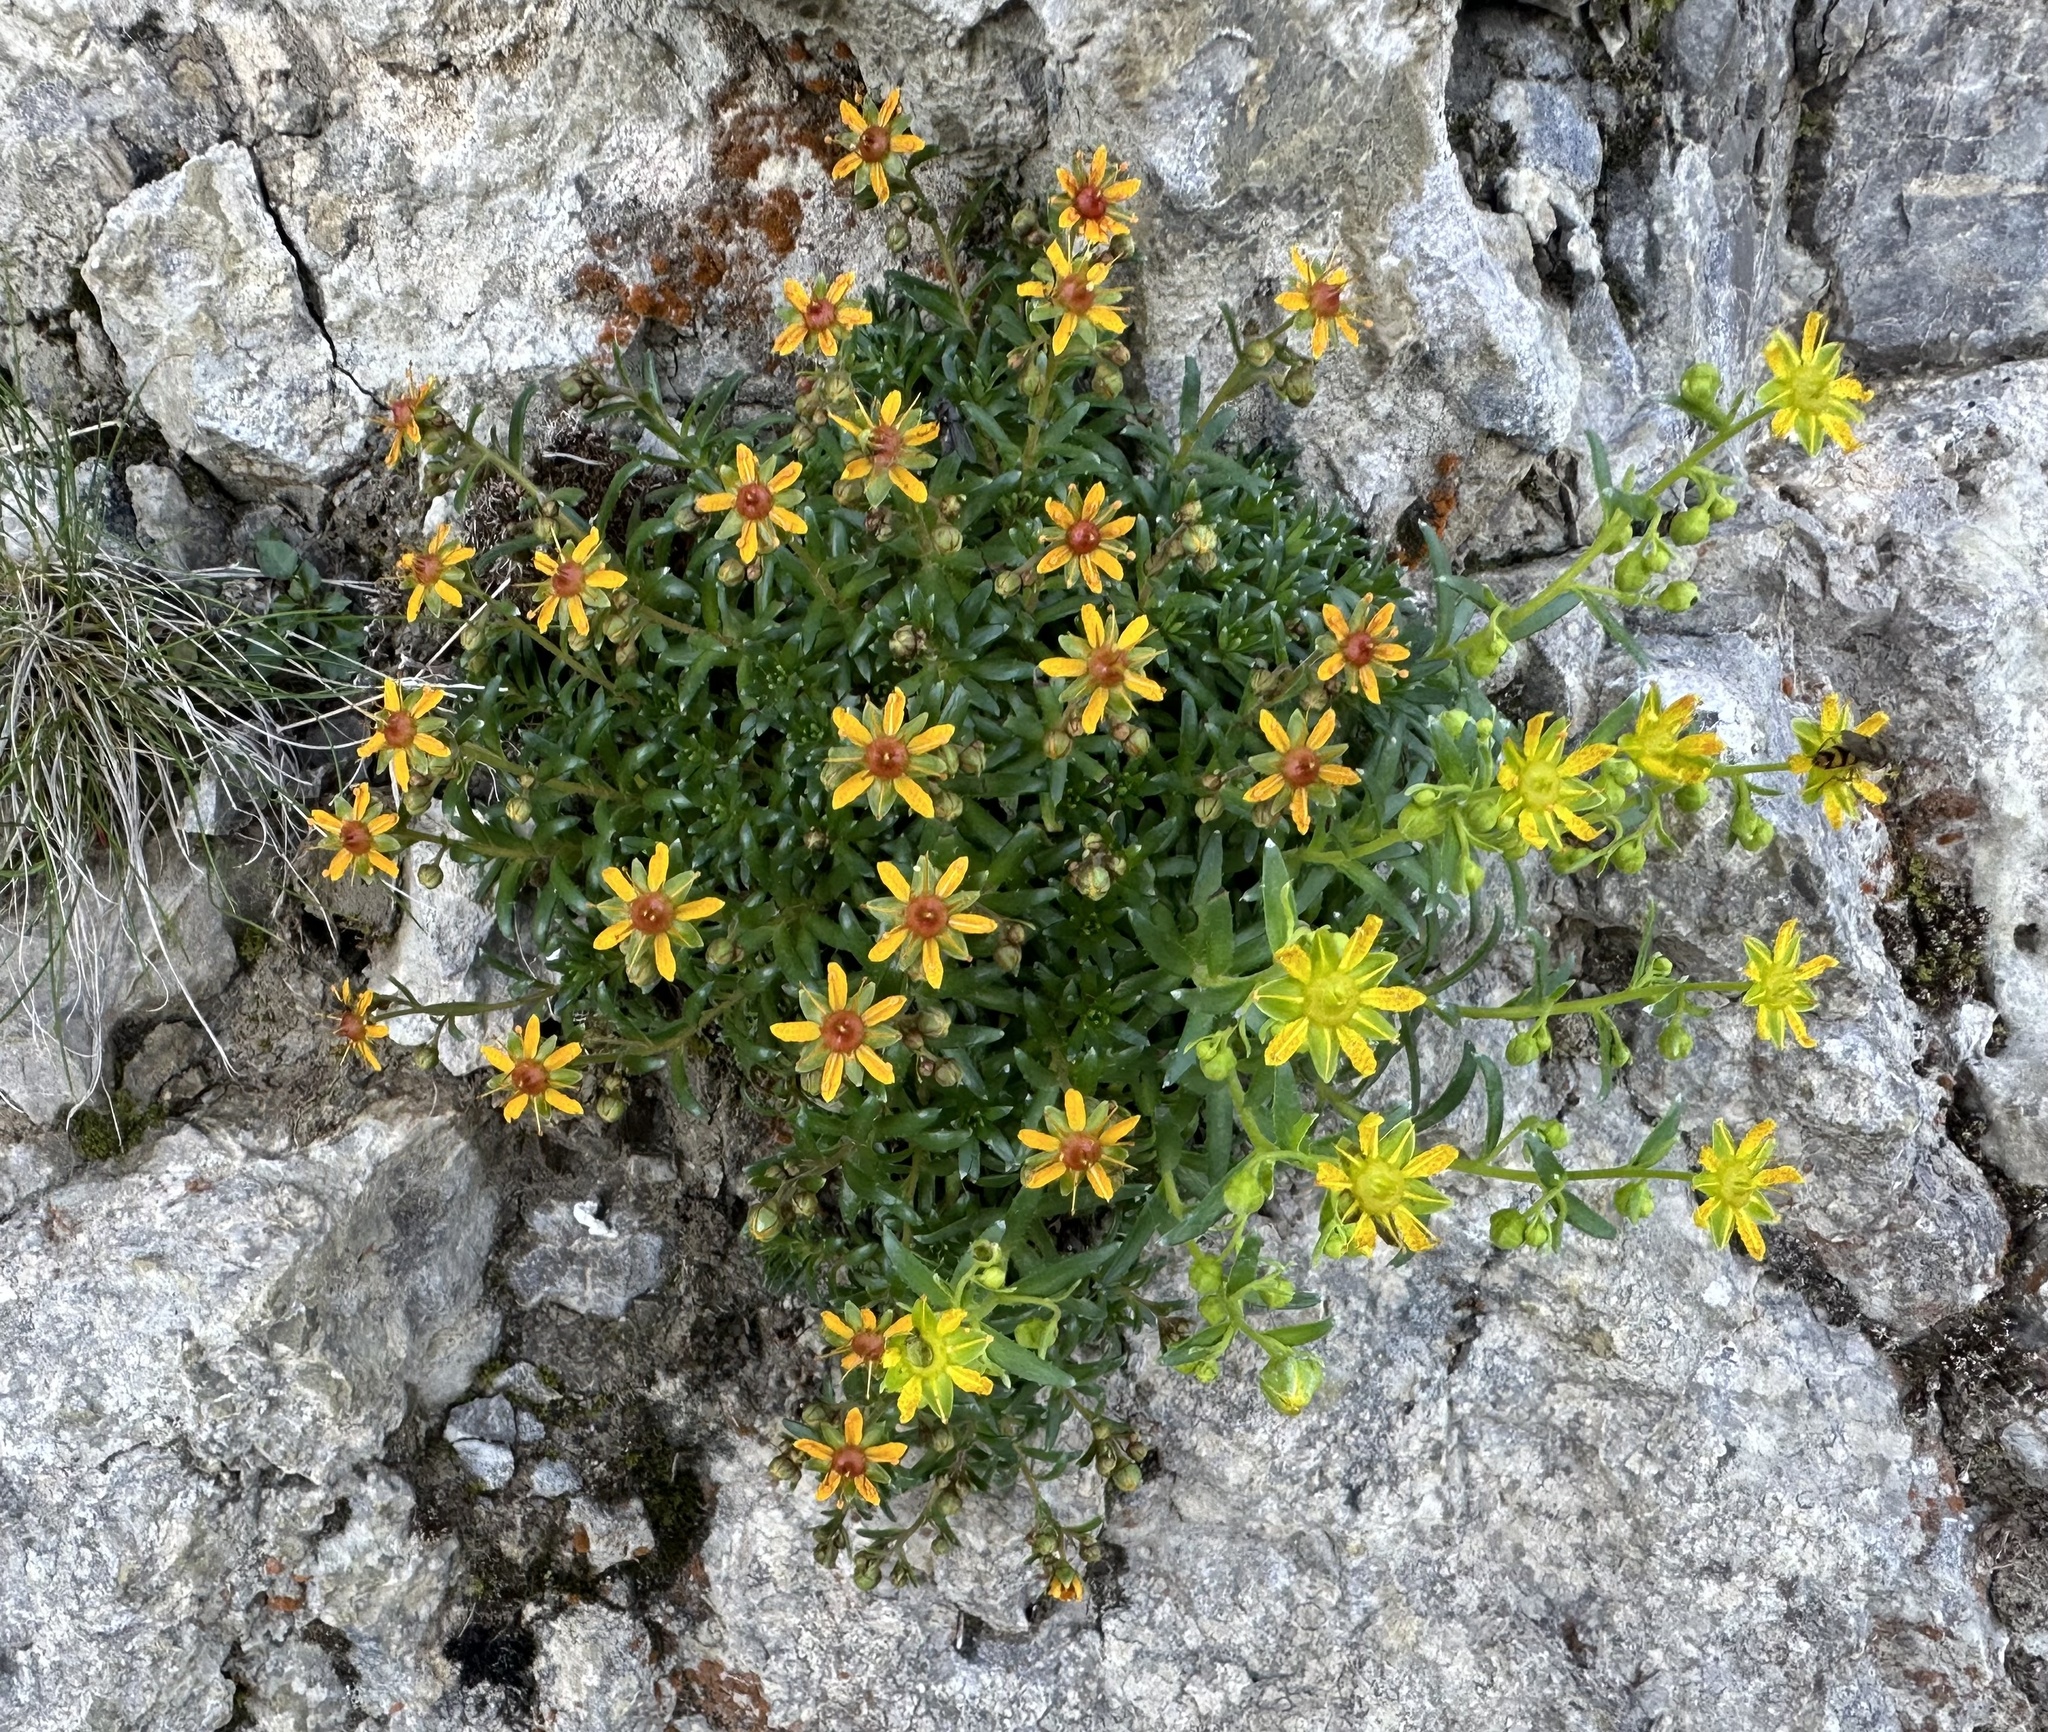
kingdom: Plantae
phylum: Tracheophyta
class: Magnoliopsida
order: Saxifragales
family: Saxifragaceae
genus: Saxifraga
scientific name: Saxifraga aizoides
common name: Yellow mountain saxifrage
